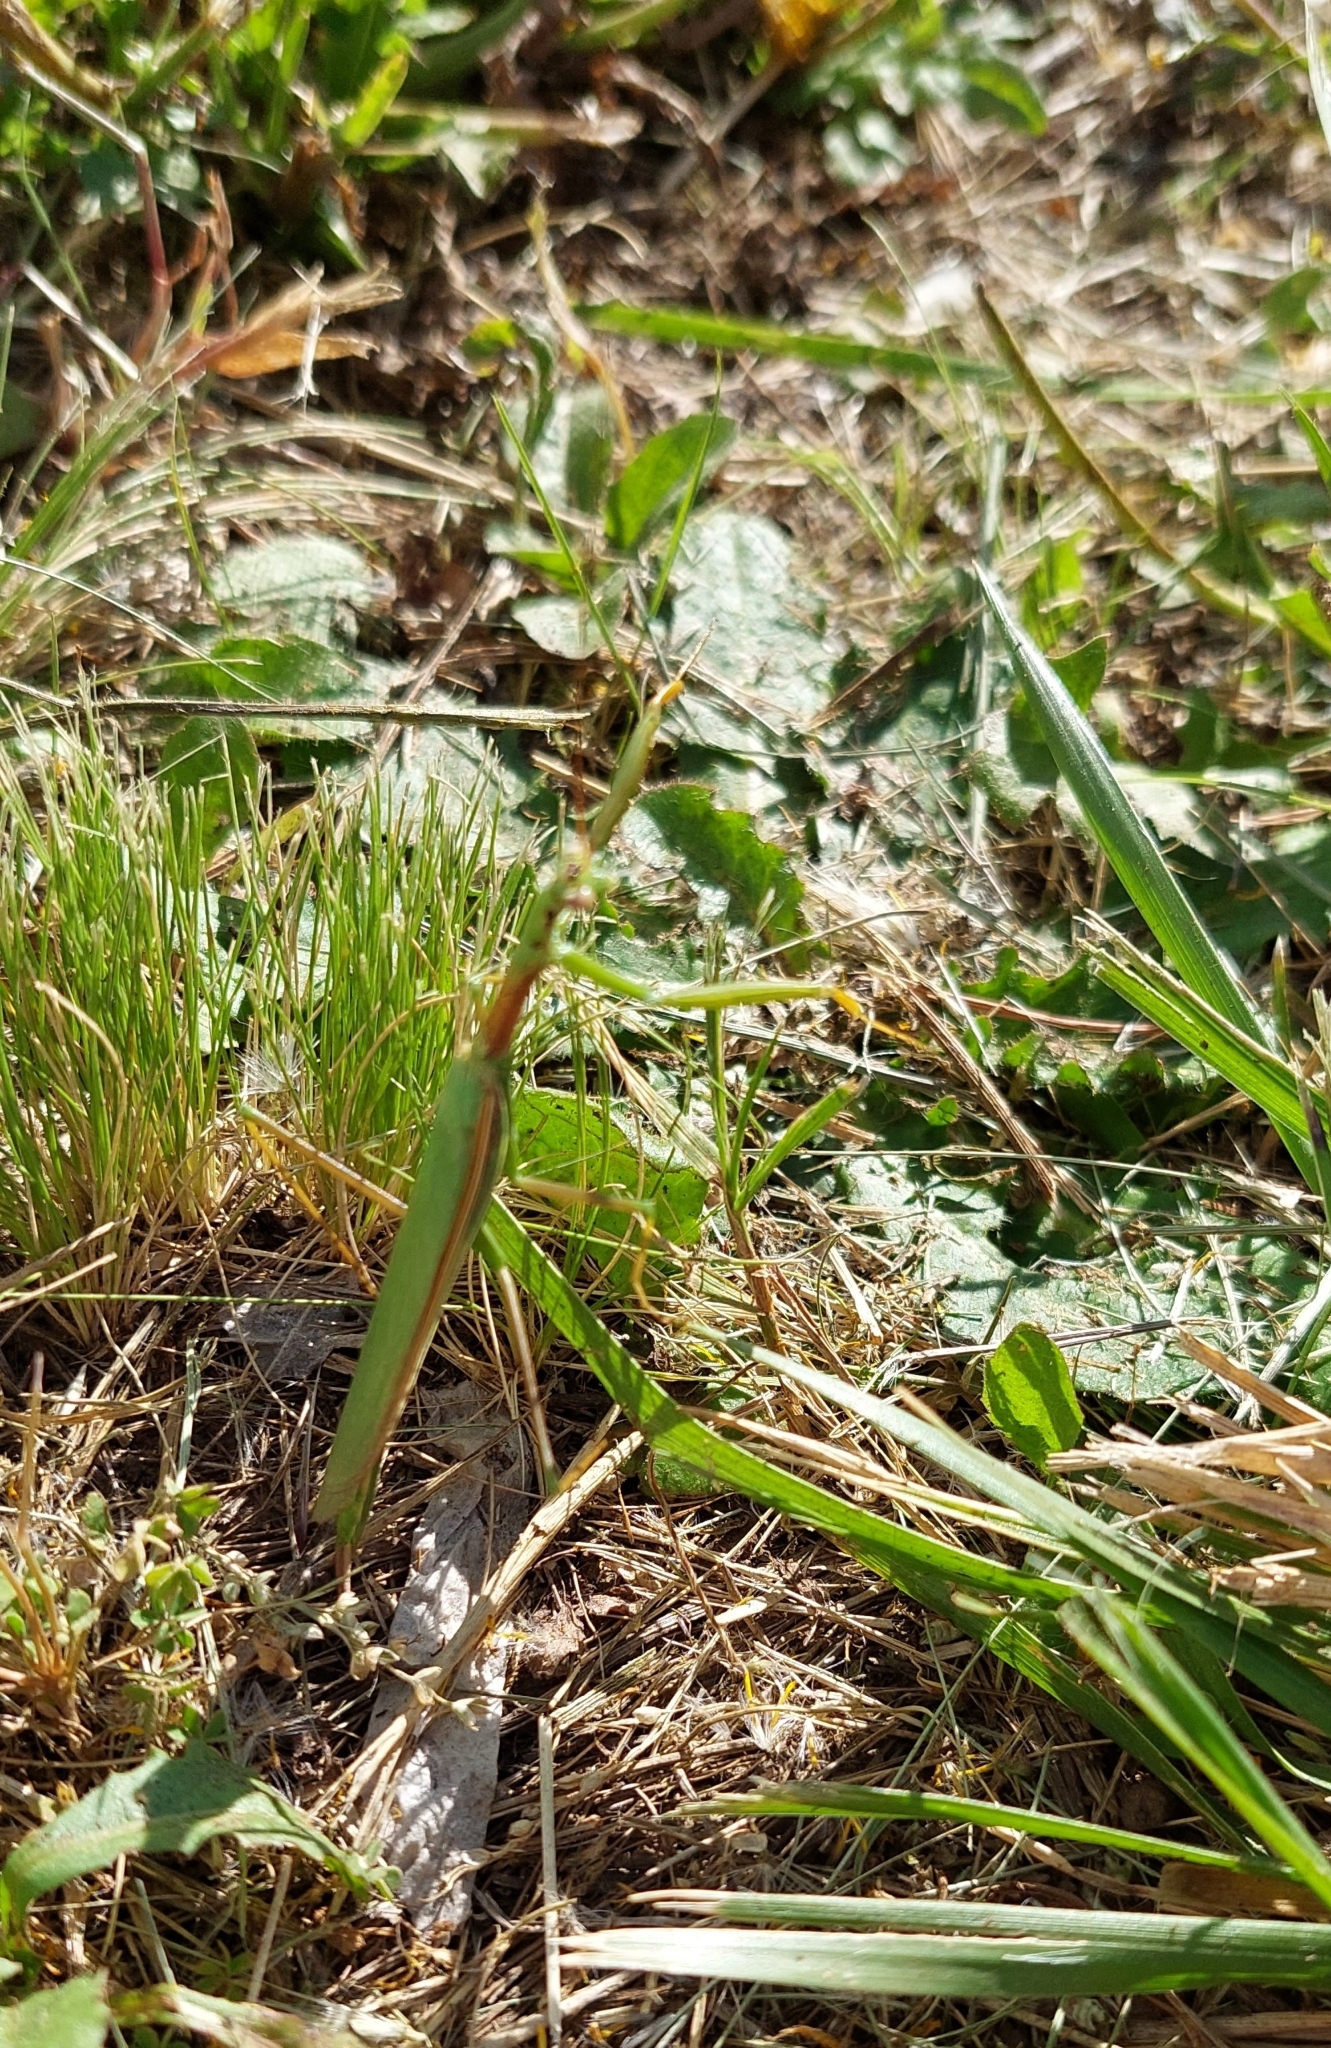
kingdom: Animalia
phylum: Arthropoda
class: Insecta
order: Mantodea
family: Coptopterygidae
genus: Coptopteryx
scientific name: Coptopteryx argentina
